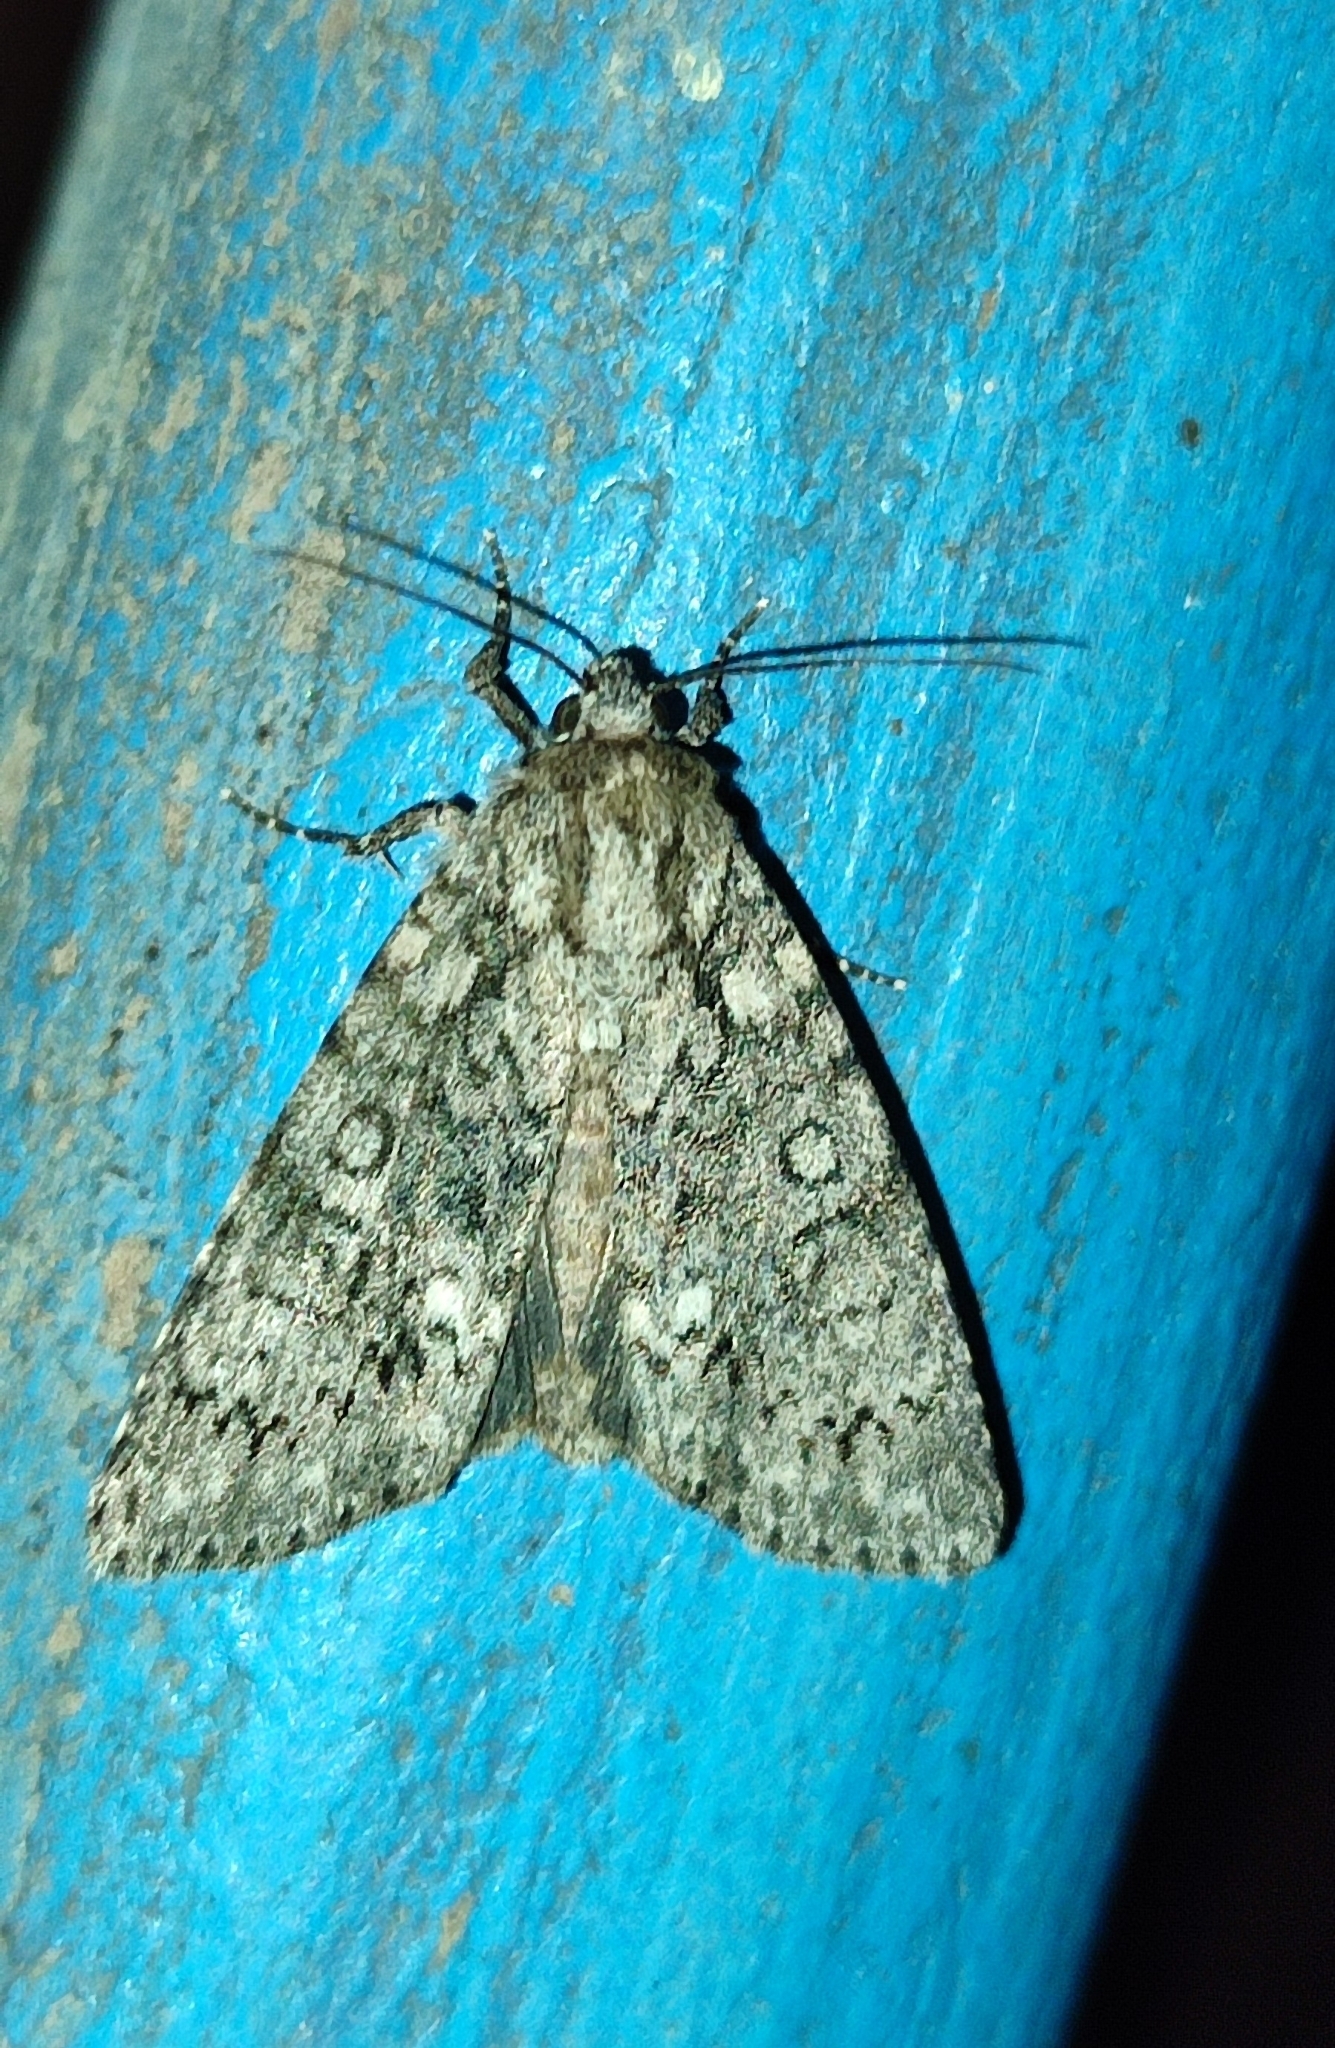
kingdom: Animalia
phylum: Arthropoda
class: Insecta
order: Lepidoptera
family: Noctuidae
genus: Acronicta
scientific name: Acronicta rumicis
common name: Knot grass
